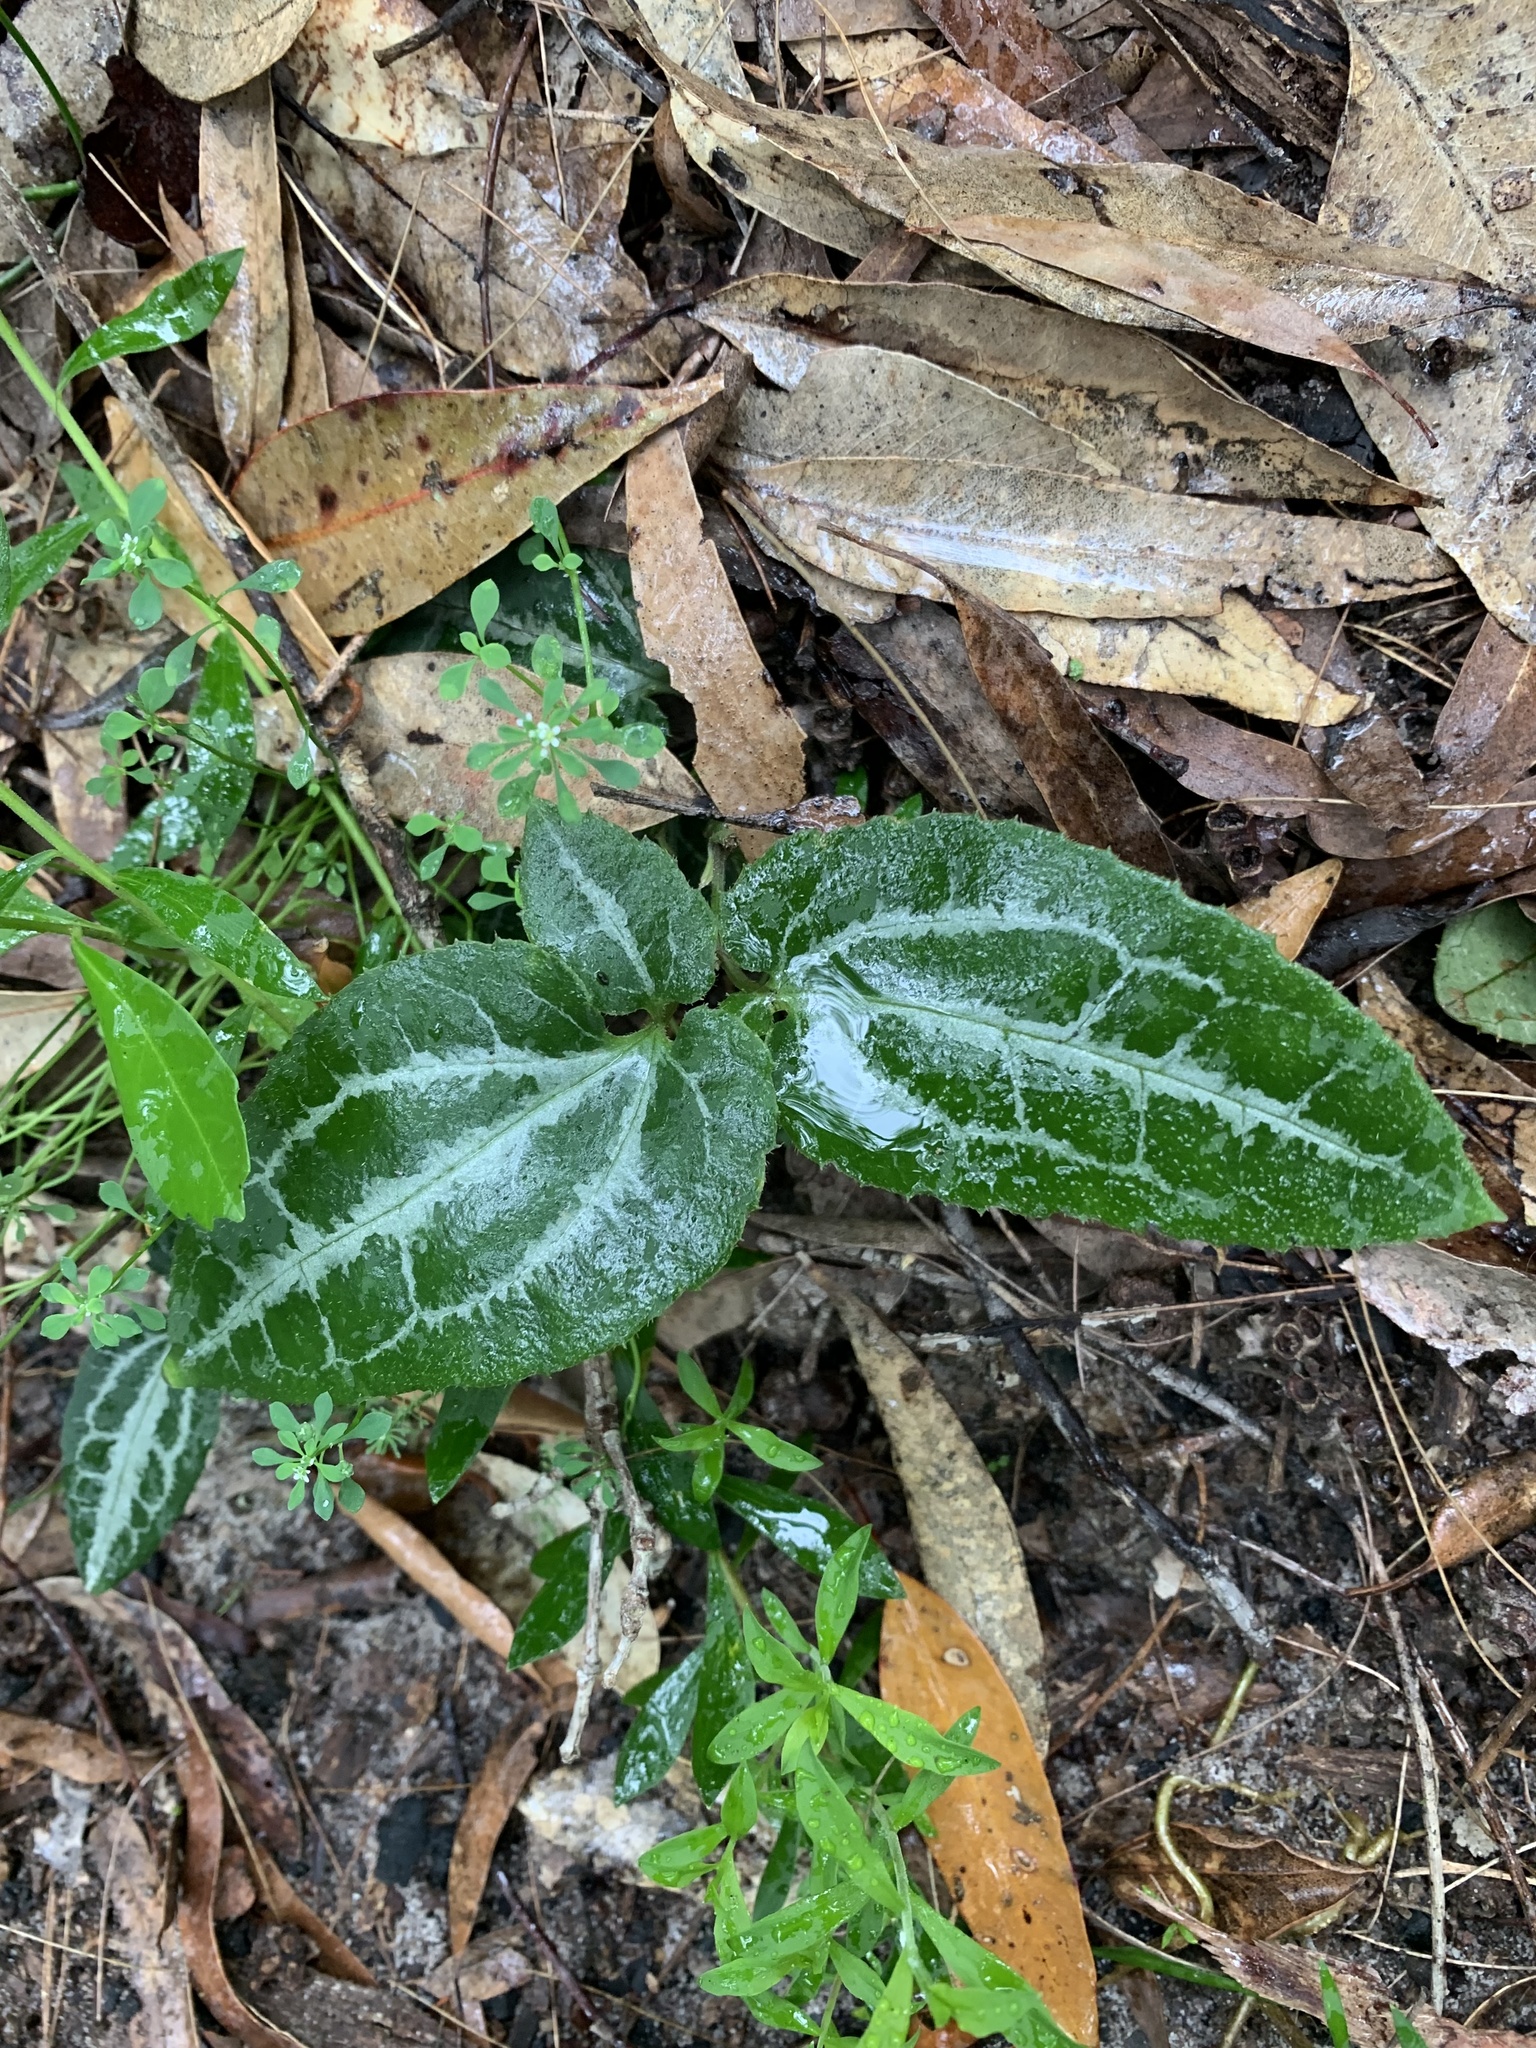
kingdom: Plantae
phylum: Tracheophyta
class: Magnoliopsida
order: Ranunculales
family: Ranunculaceae
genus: Clematis
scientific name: Clematis aristata
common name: Mountain clematis
